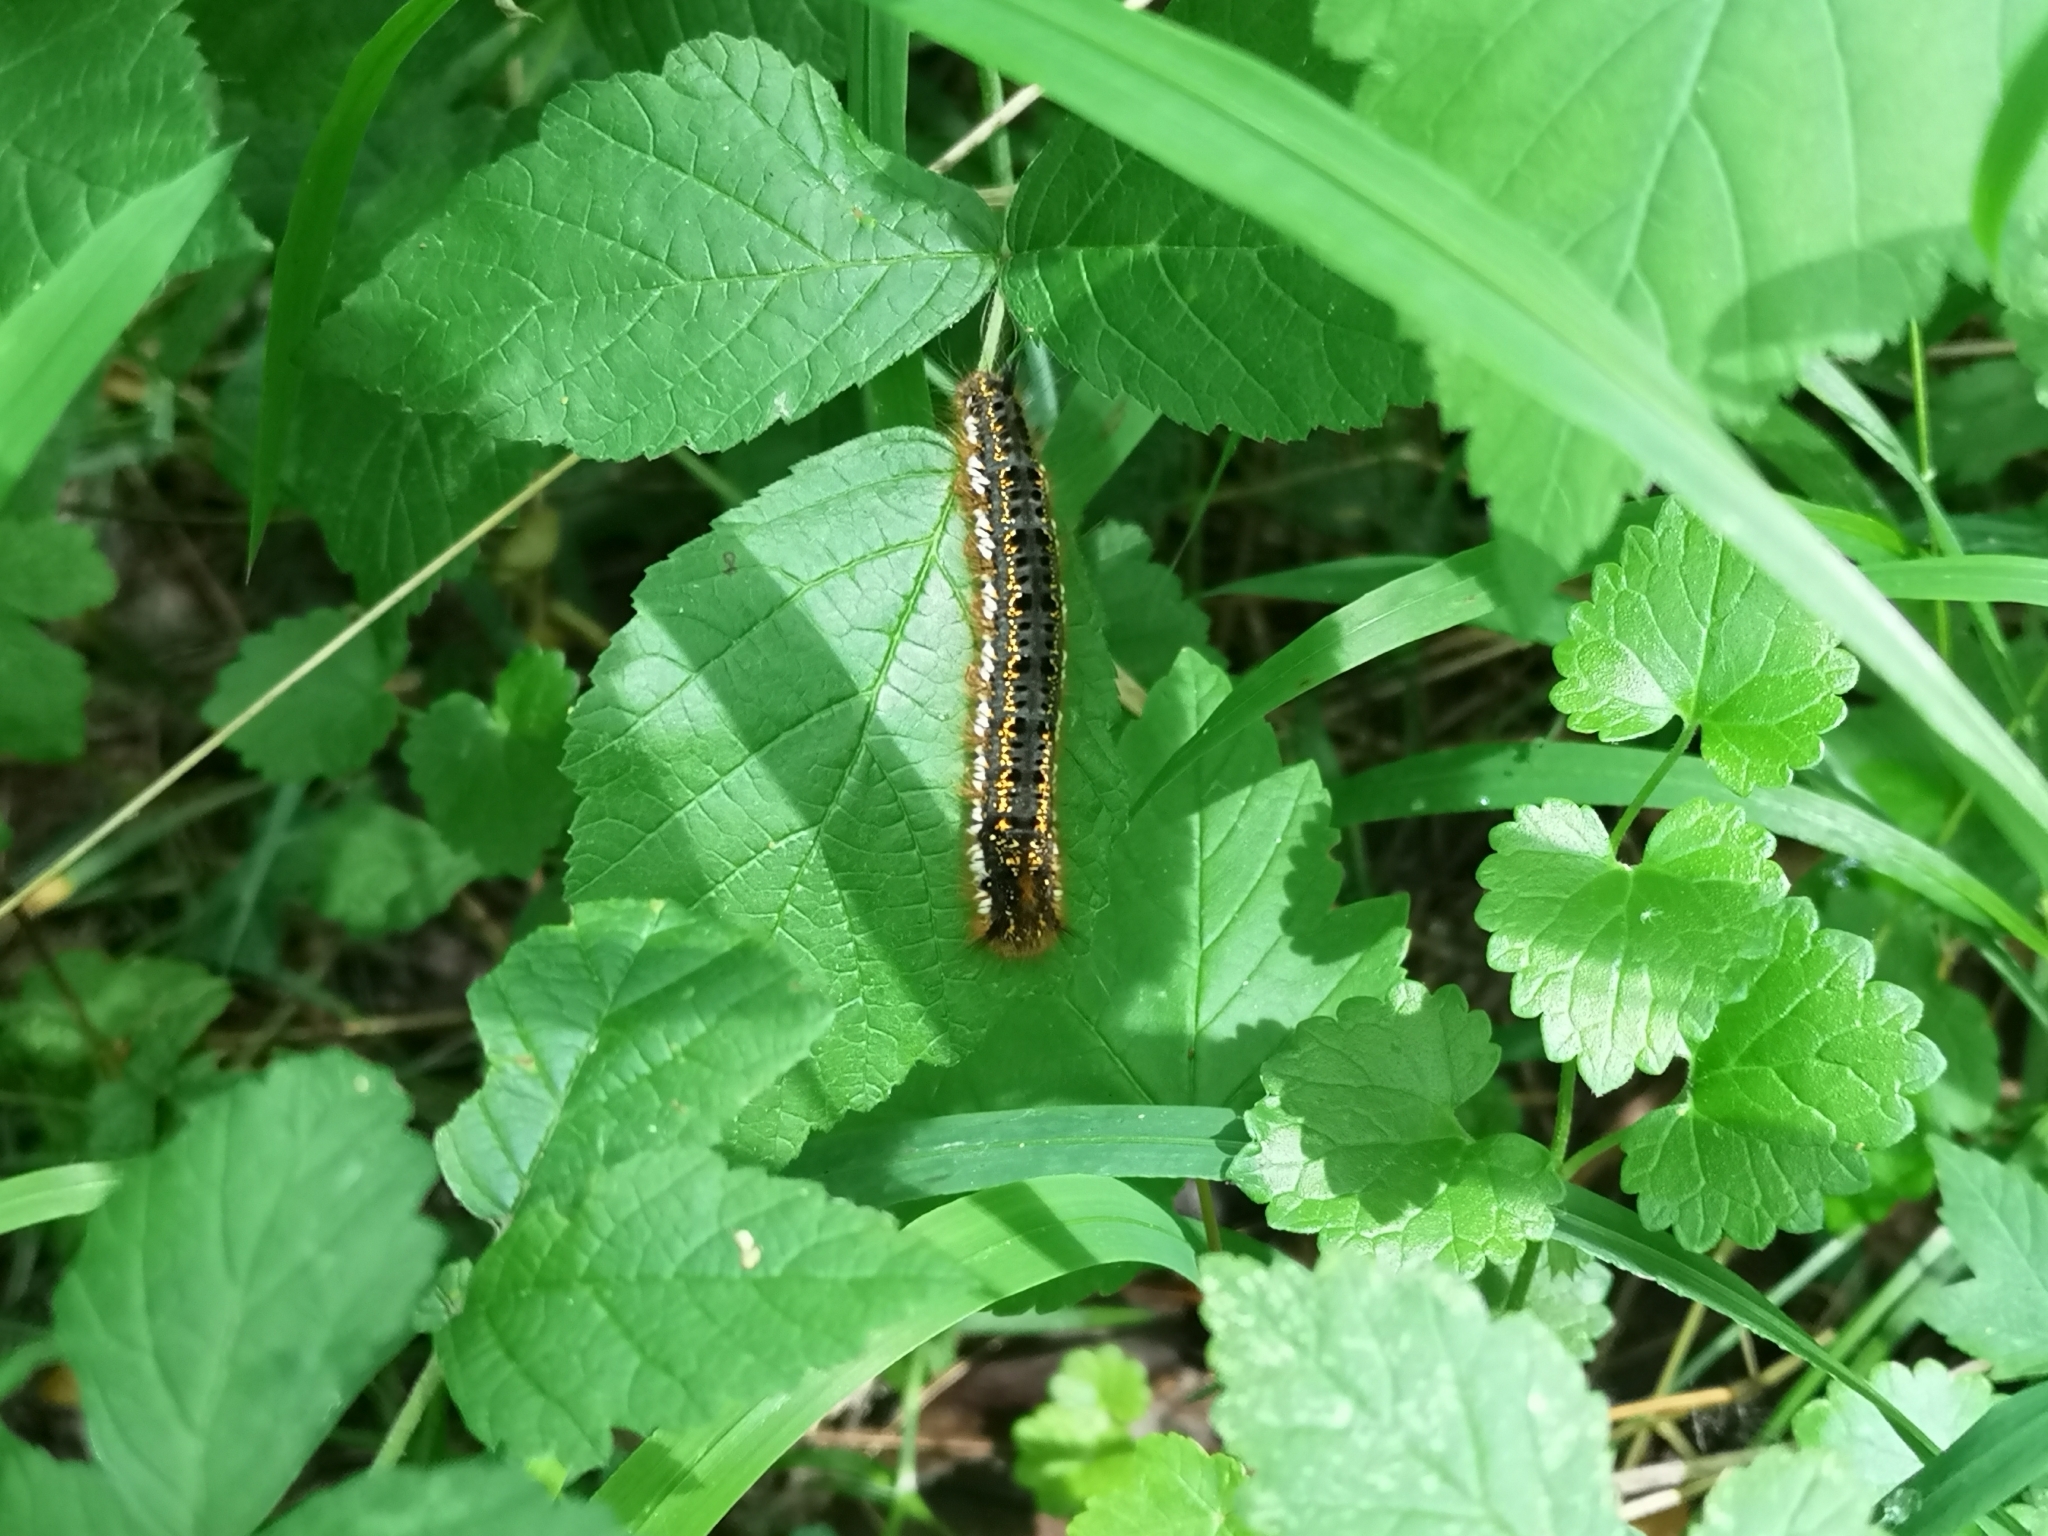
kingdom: Animalia
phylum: Arthropoda
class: Insecta
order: Lepidoptera
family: Lasiocampidae
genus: Euthrix
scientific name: Euthrix potatoria
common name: Drinker
